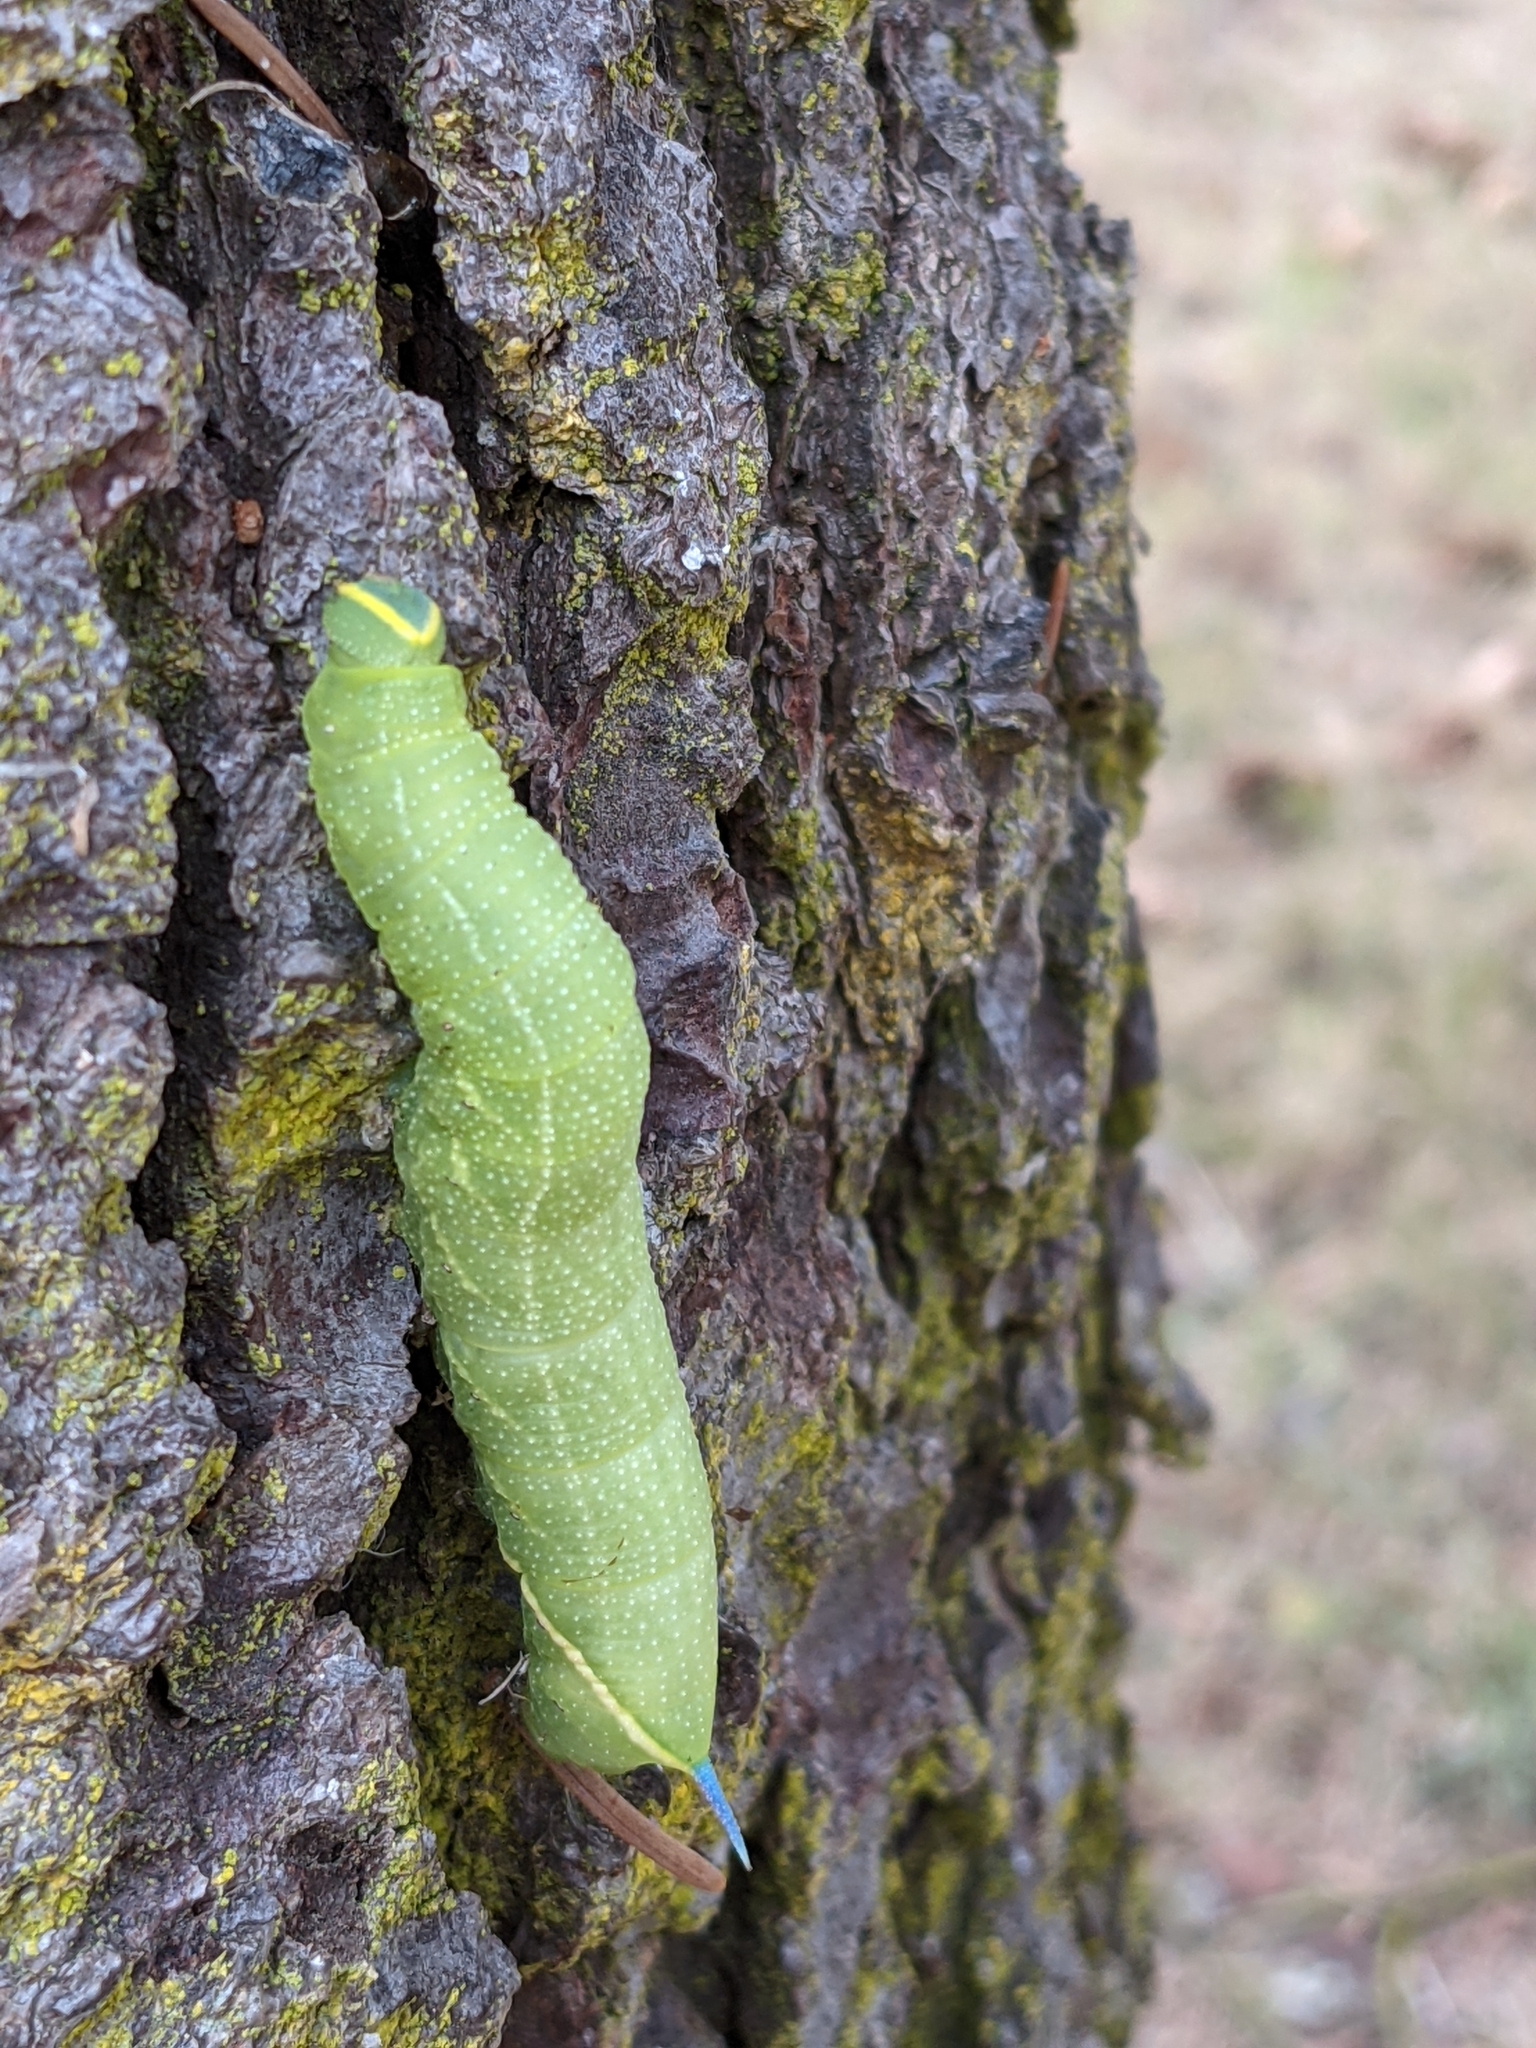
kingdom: Animalia
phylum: Arthropoda
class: Insecta
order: Lepidoptera
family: Sphingidae
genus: Smerinthus
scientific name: Smerinthus cerisyi
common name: Cerisy's sphinx moth
